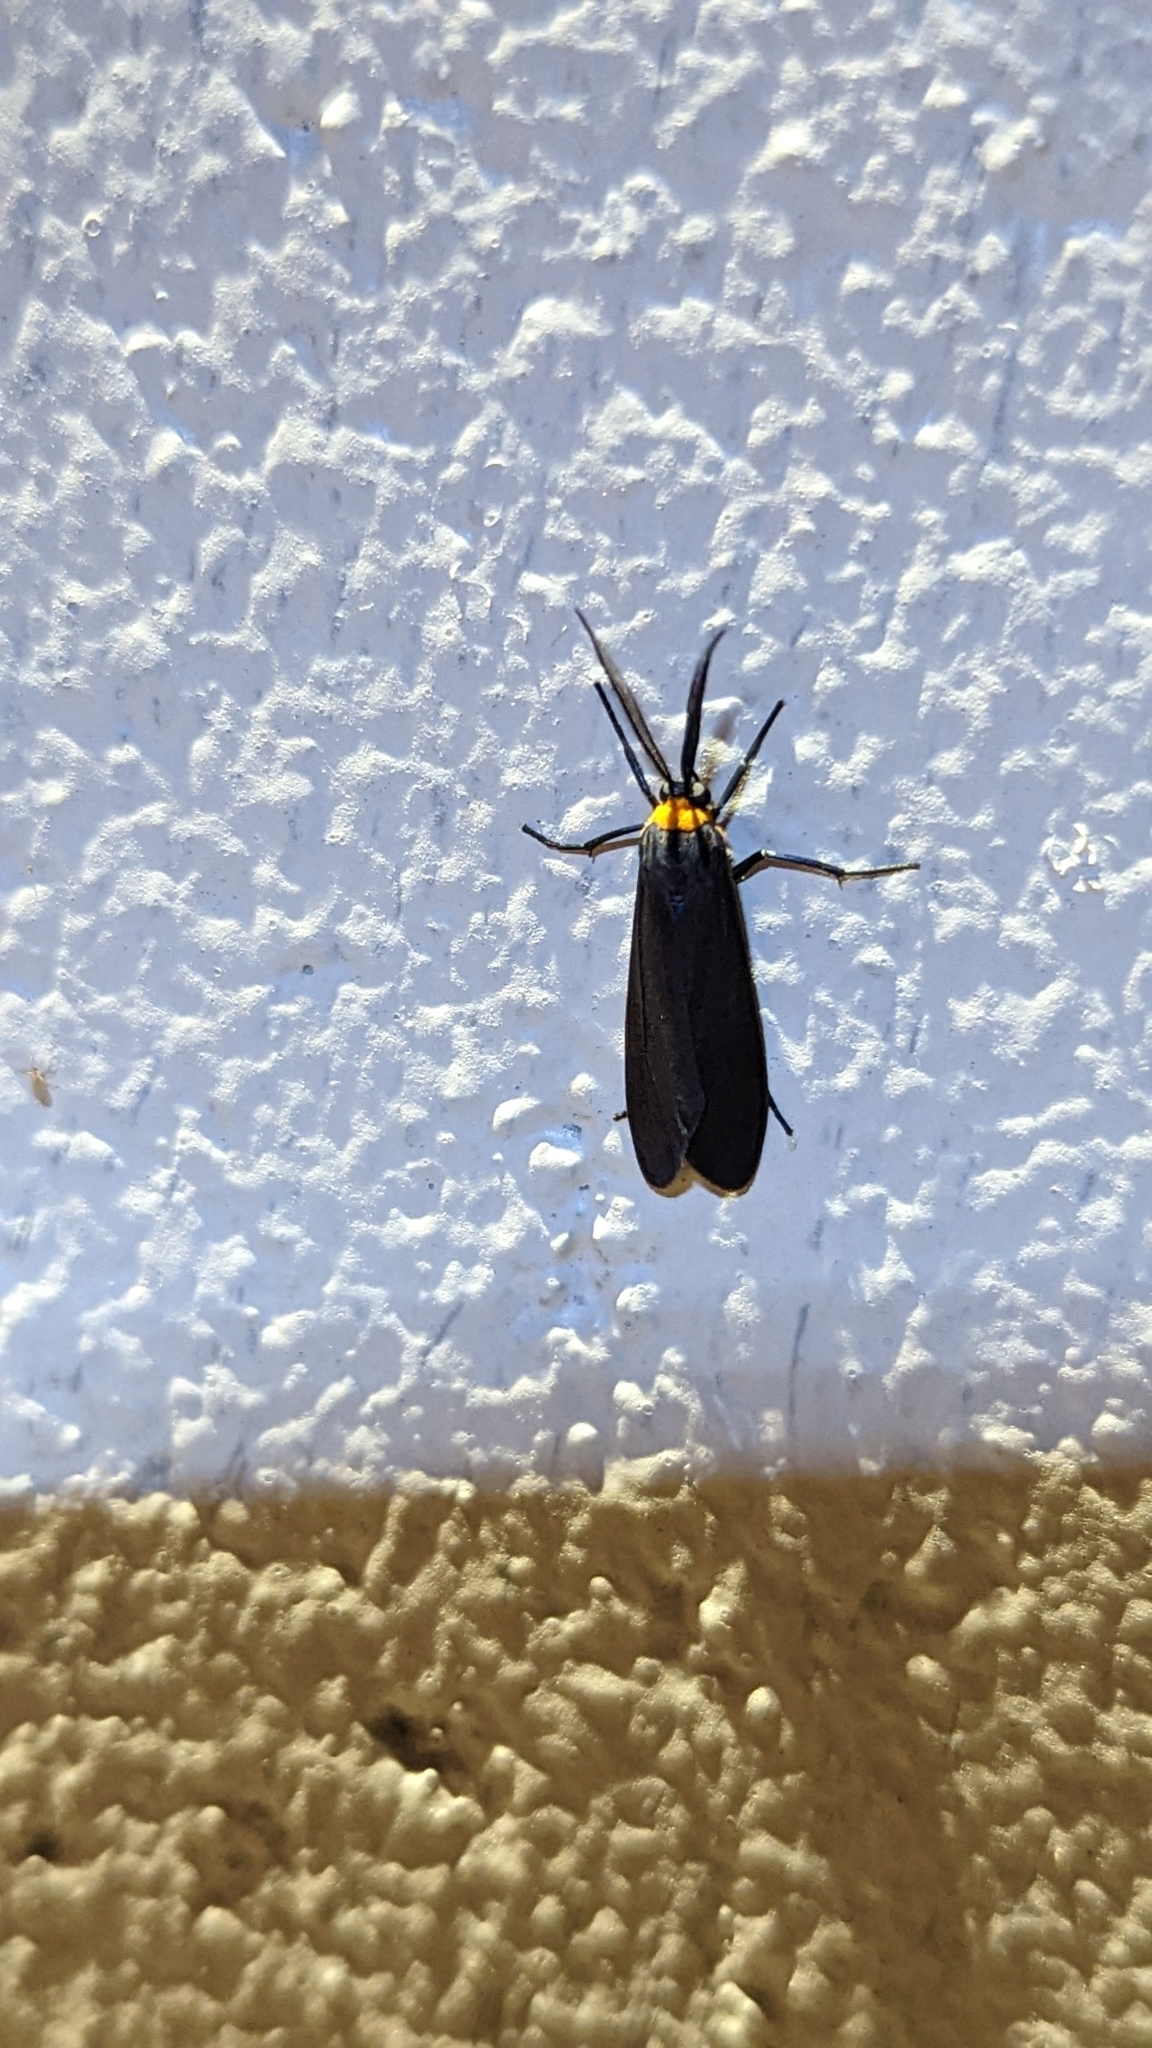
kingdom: Animalia
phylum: Arthropoda
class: Insecta
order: Lepidoptera
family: Erebidae
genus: Cisseps
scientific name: Cisseps fulvicollis
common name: Yellow-collared scape moth
